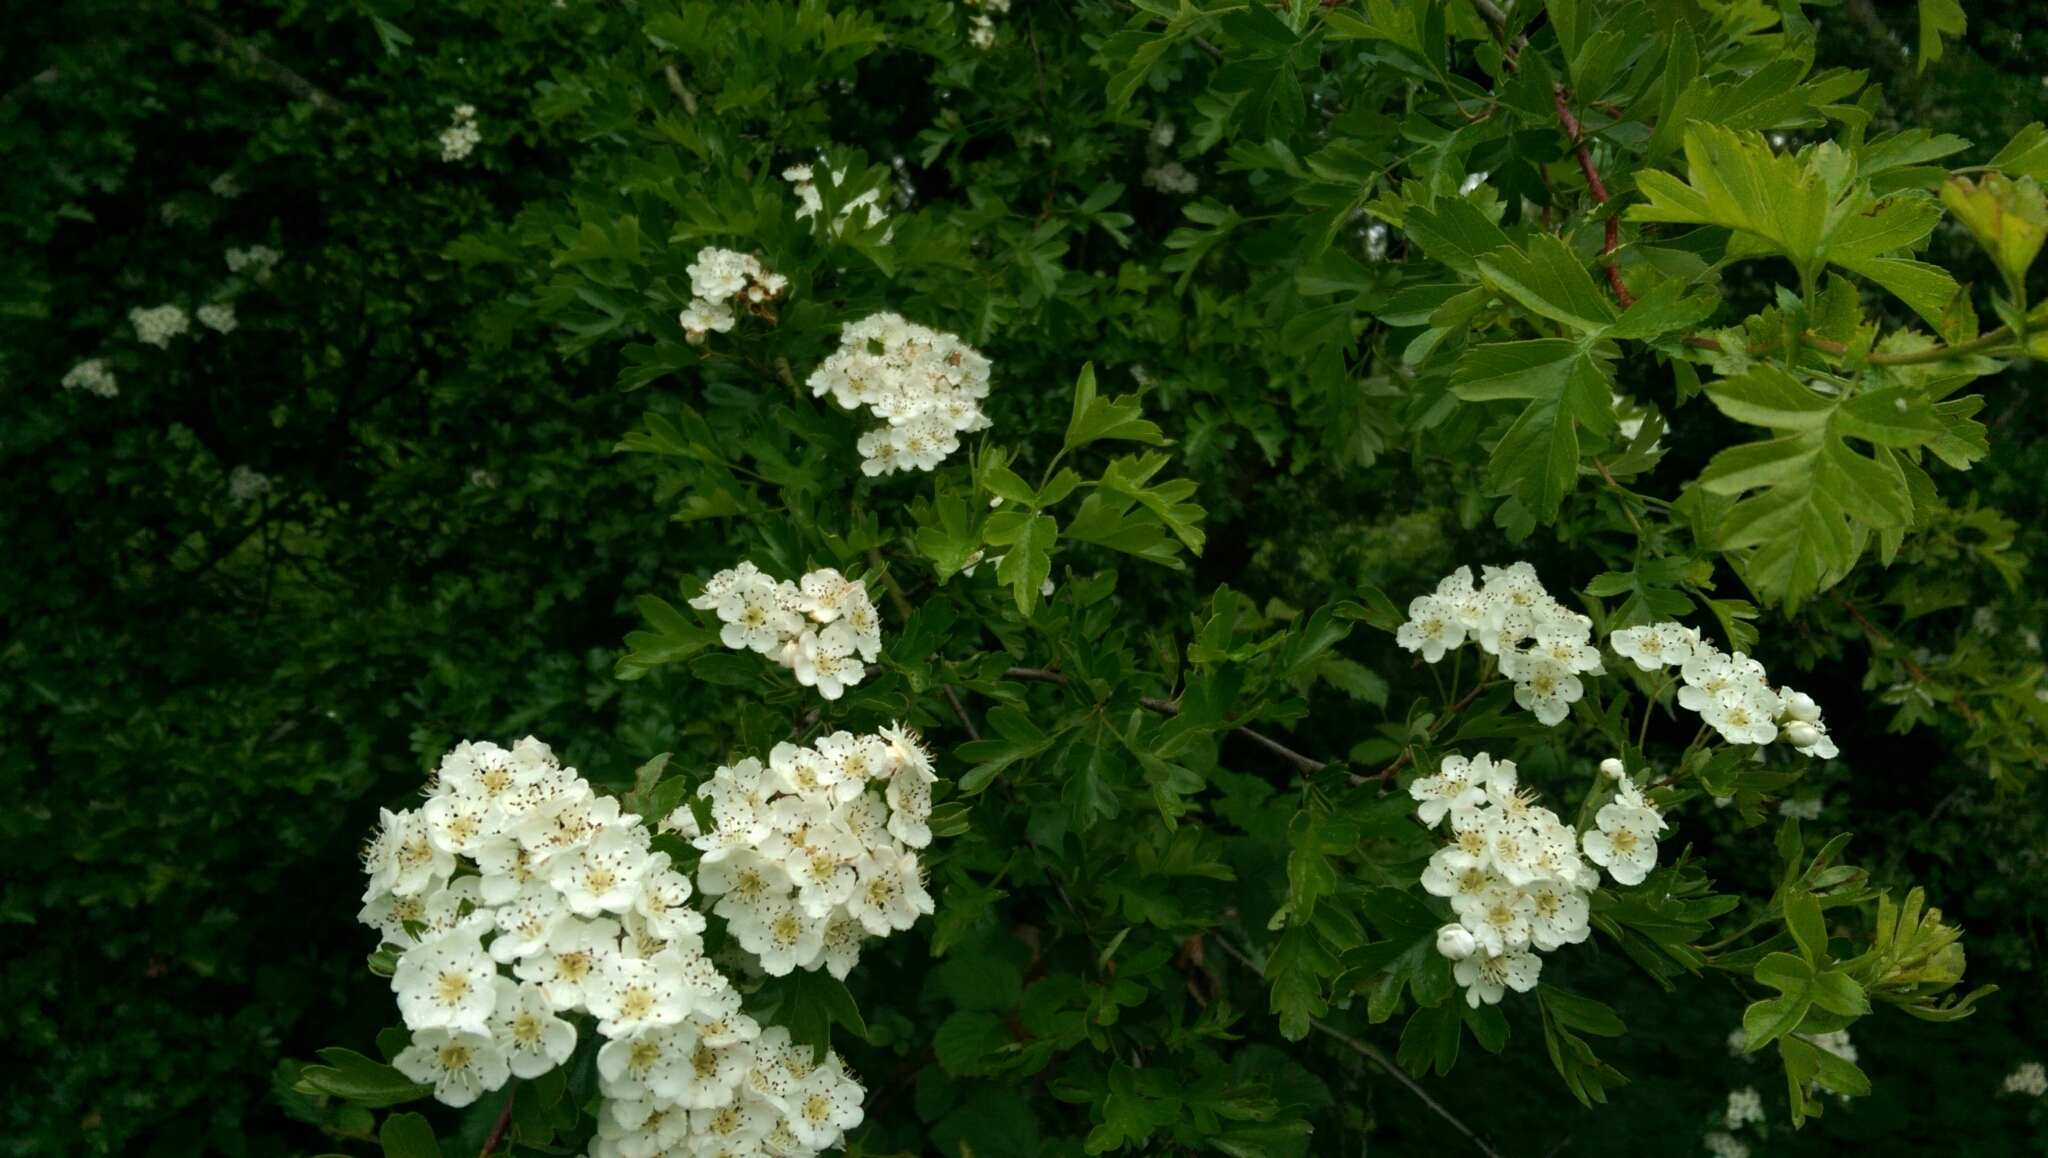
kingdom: Plantae
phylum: Tracheophyta
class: Magnoliopsida
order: Rosales
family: Rosaceae
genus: Crataegus
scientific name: Crataegus monogyna
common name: Hawthorn
